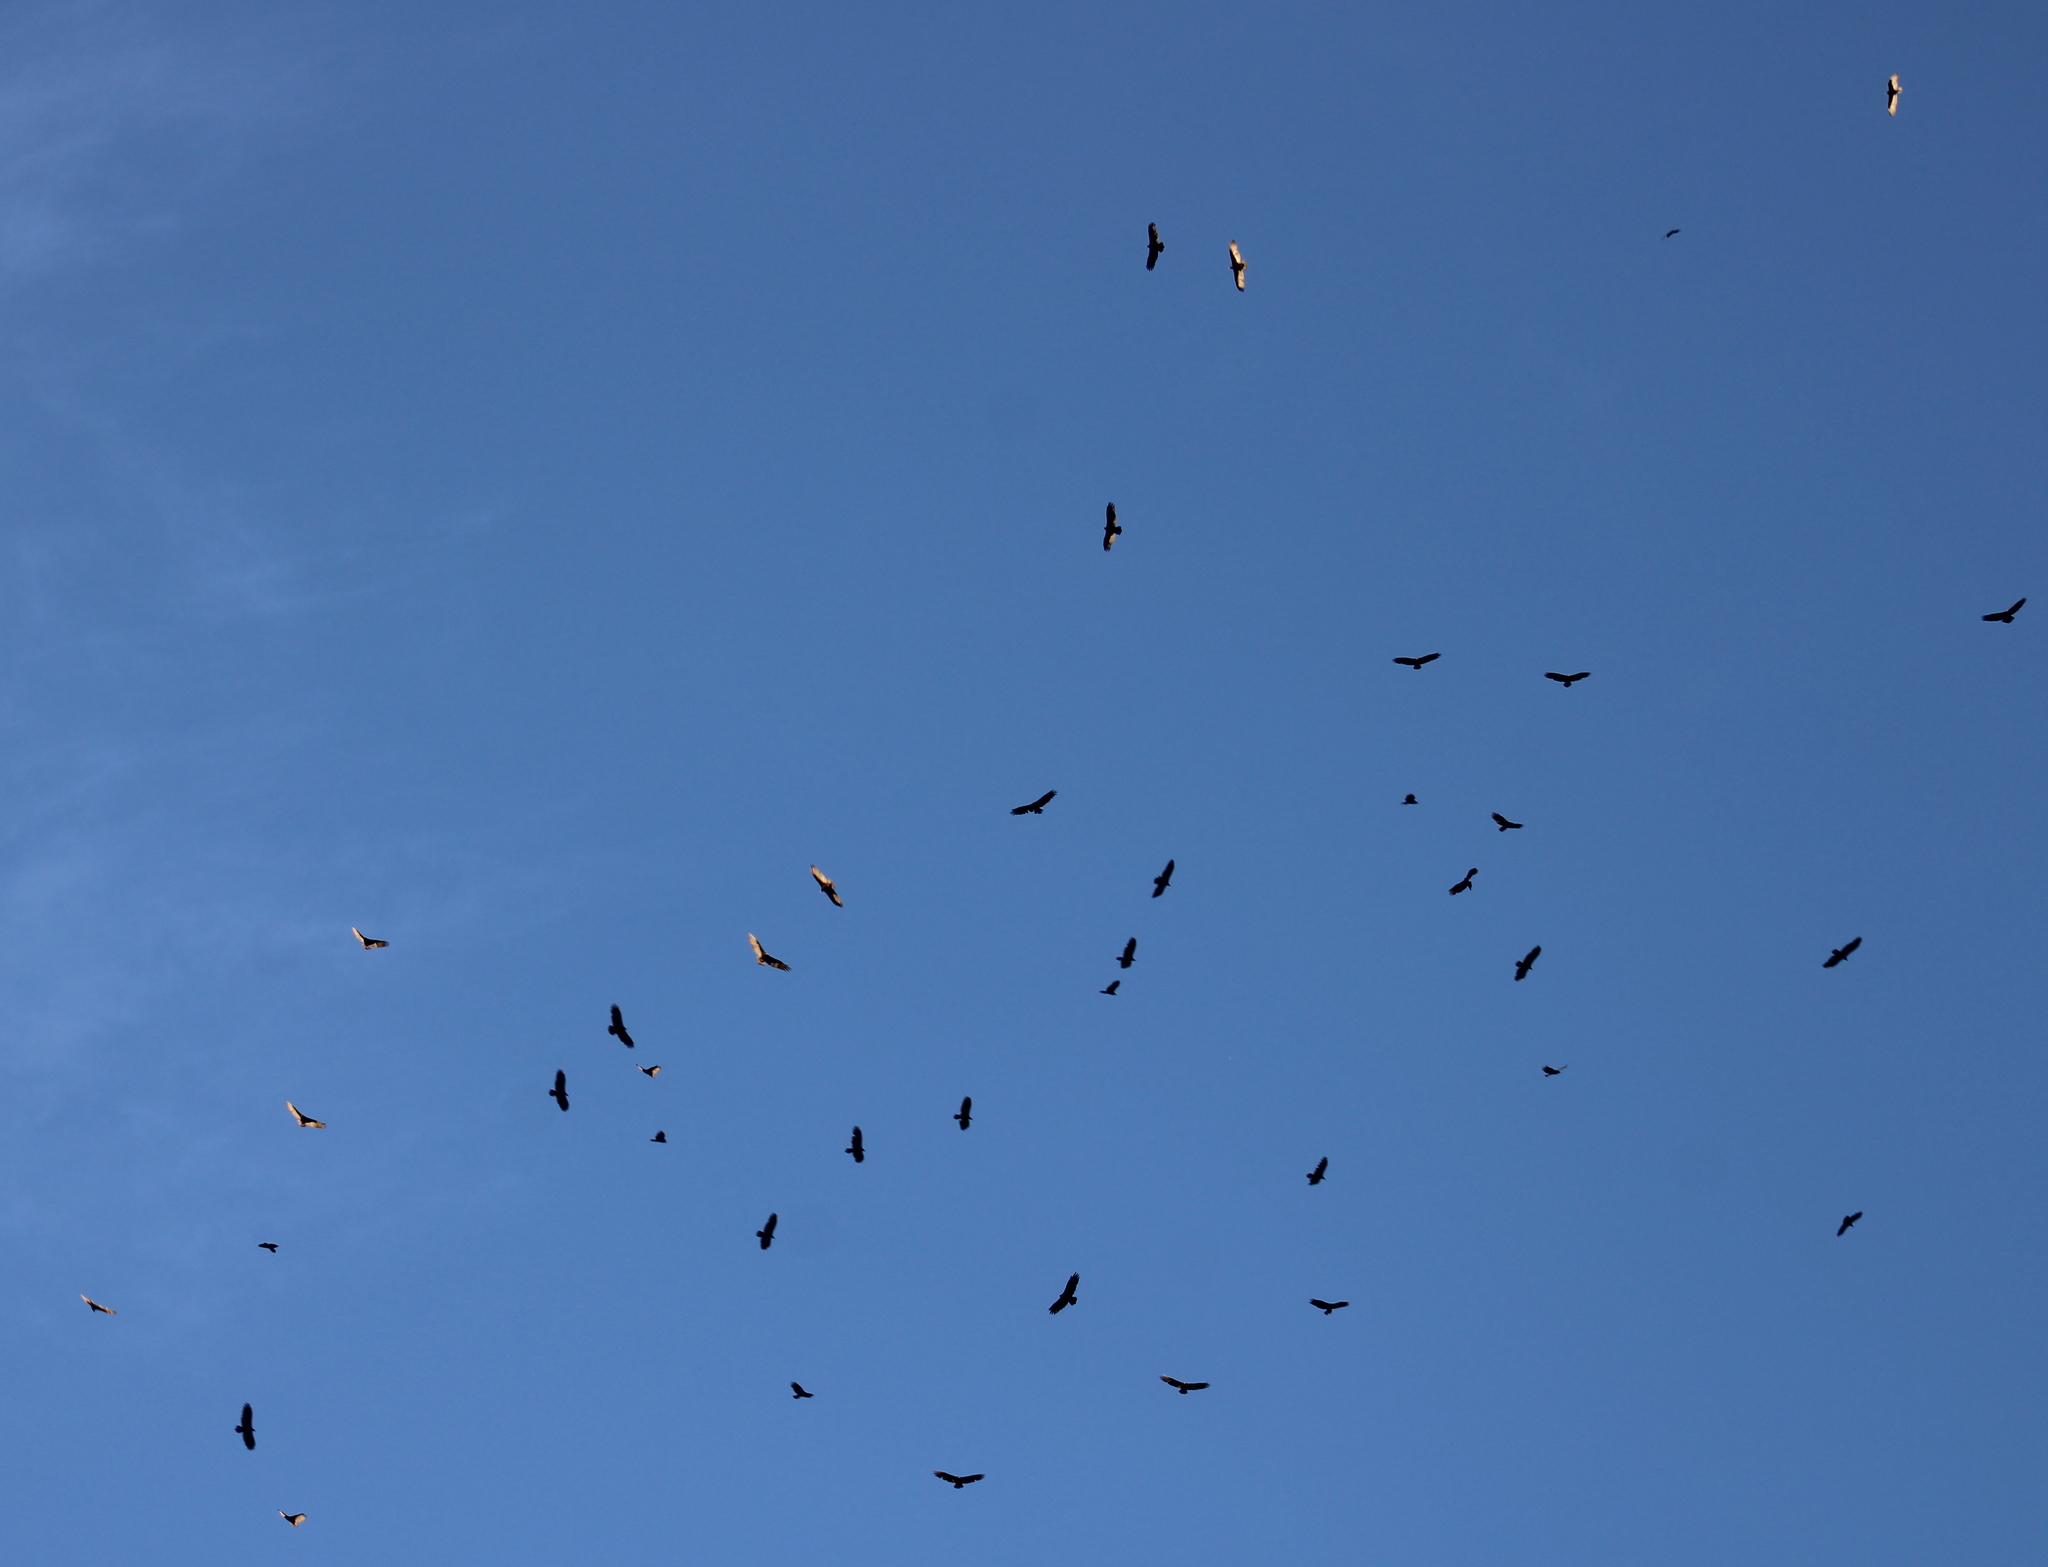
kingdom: Animalia
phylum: Chordata
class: Aves
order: Accipitriformes
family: Cathartidae
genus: Cathartes
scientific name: Cathartes aura
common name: Turkey vulture
